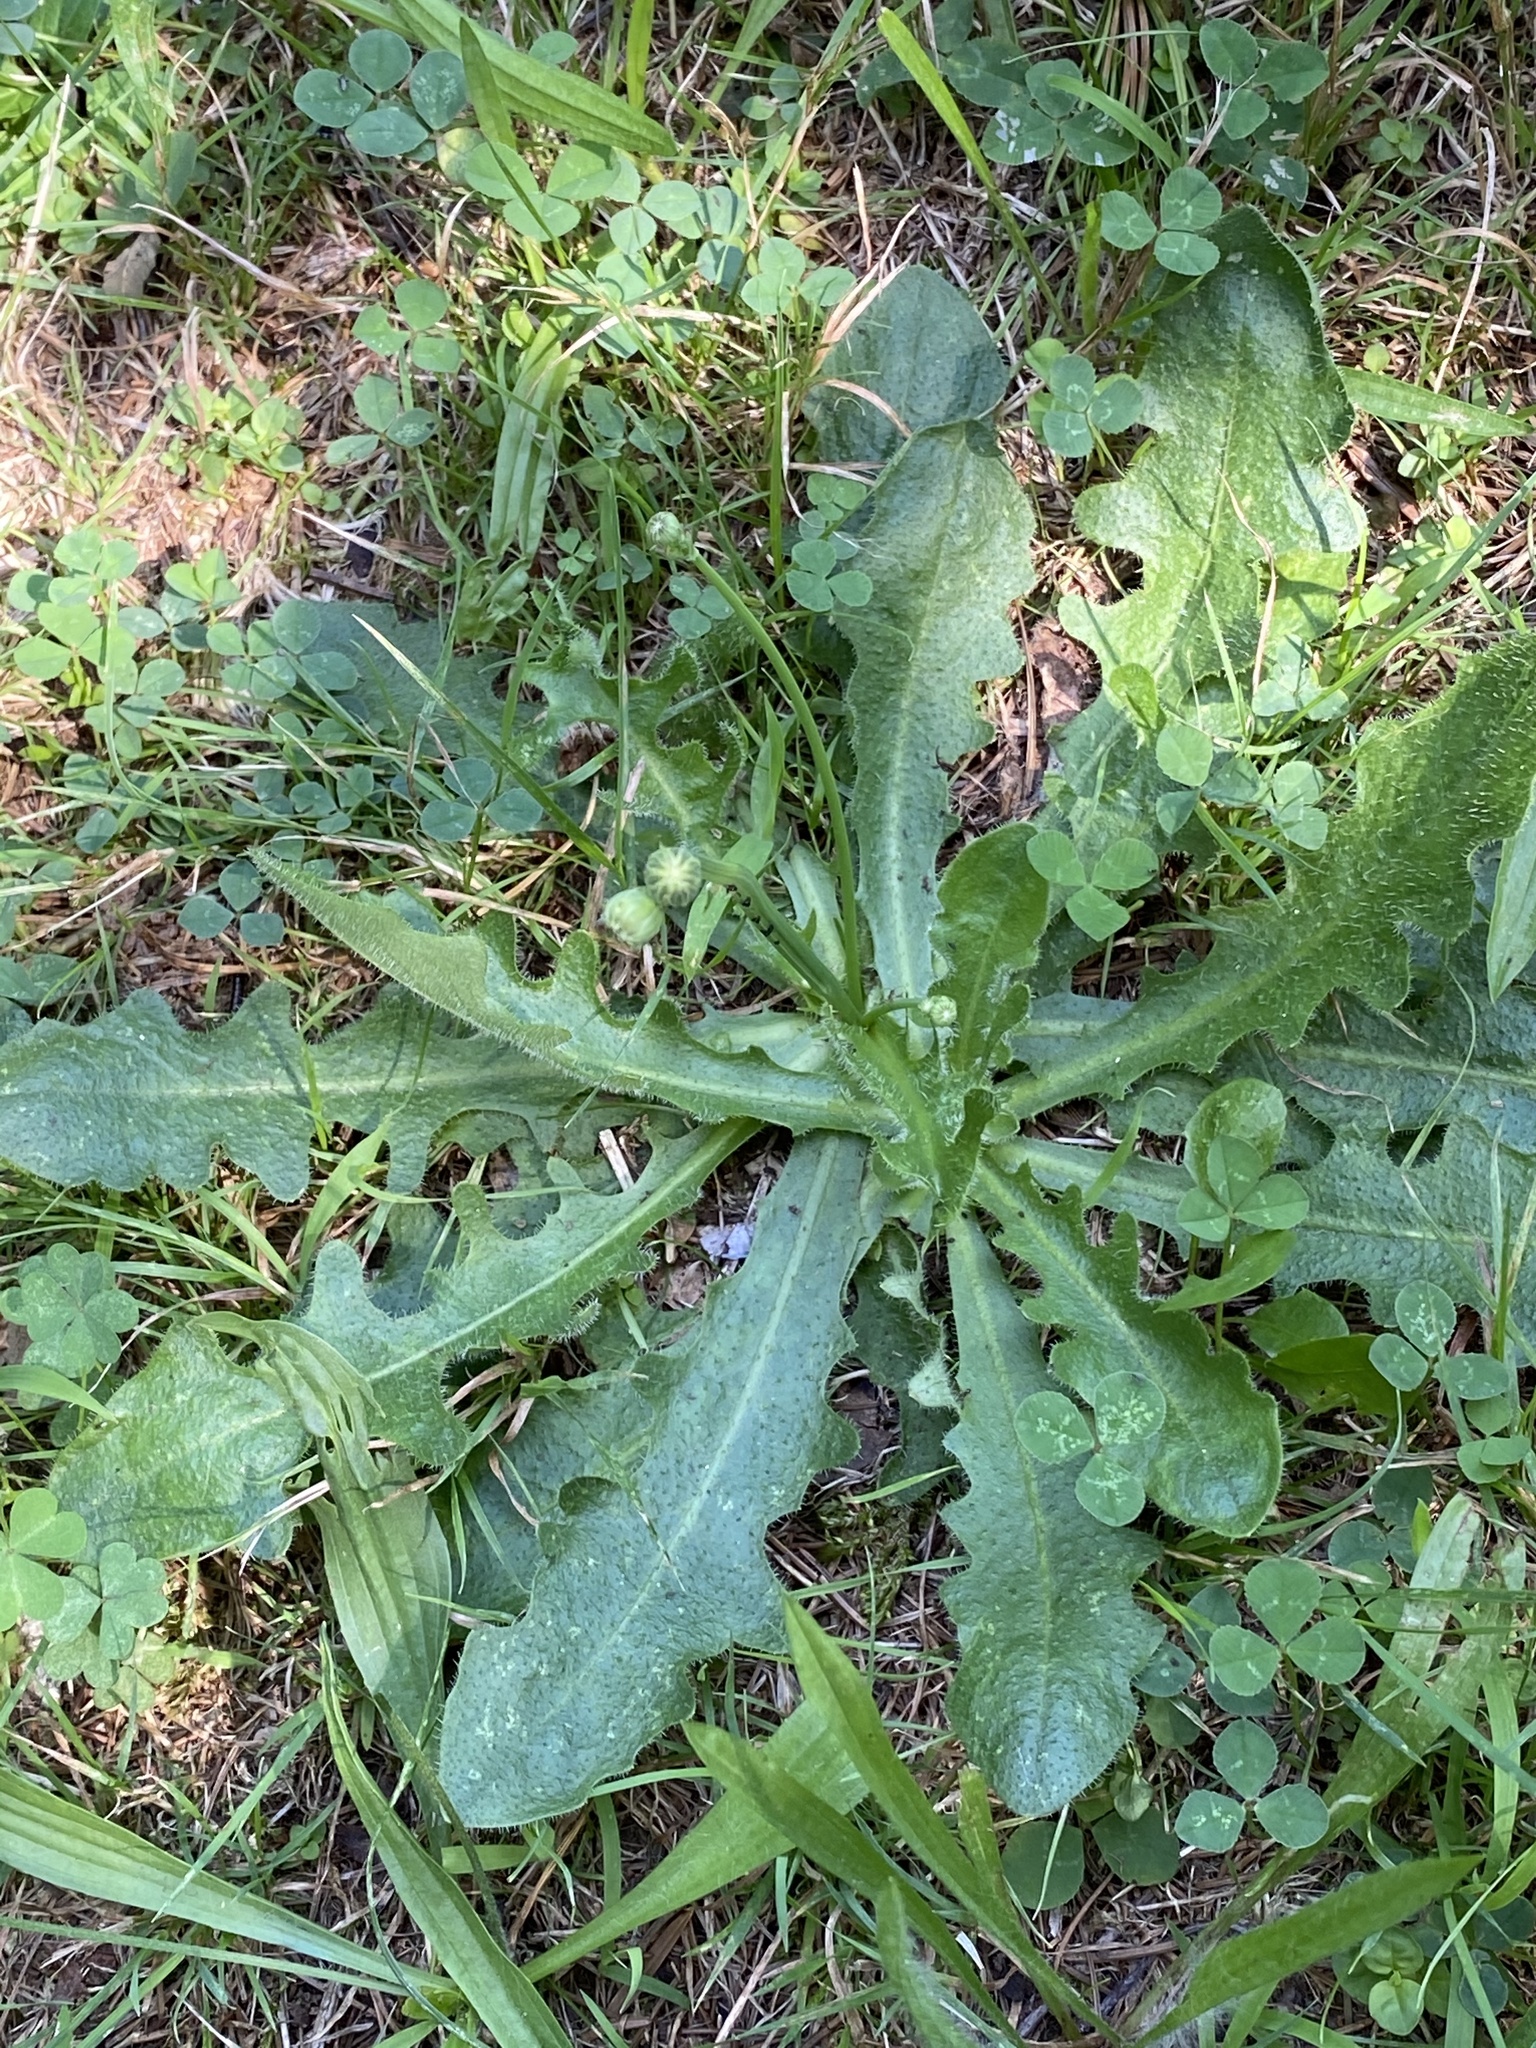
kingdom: Plantae
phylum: Tracheophyta
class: Magnoliopsida
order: Asterales
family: Asteraceae
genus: Hypochaeris
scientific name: Hypochaeris radicata
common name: Flatweed
